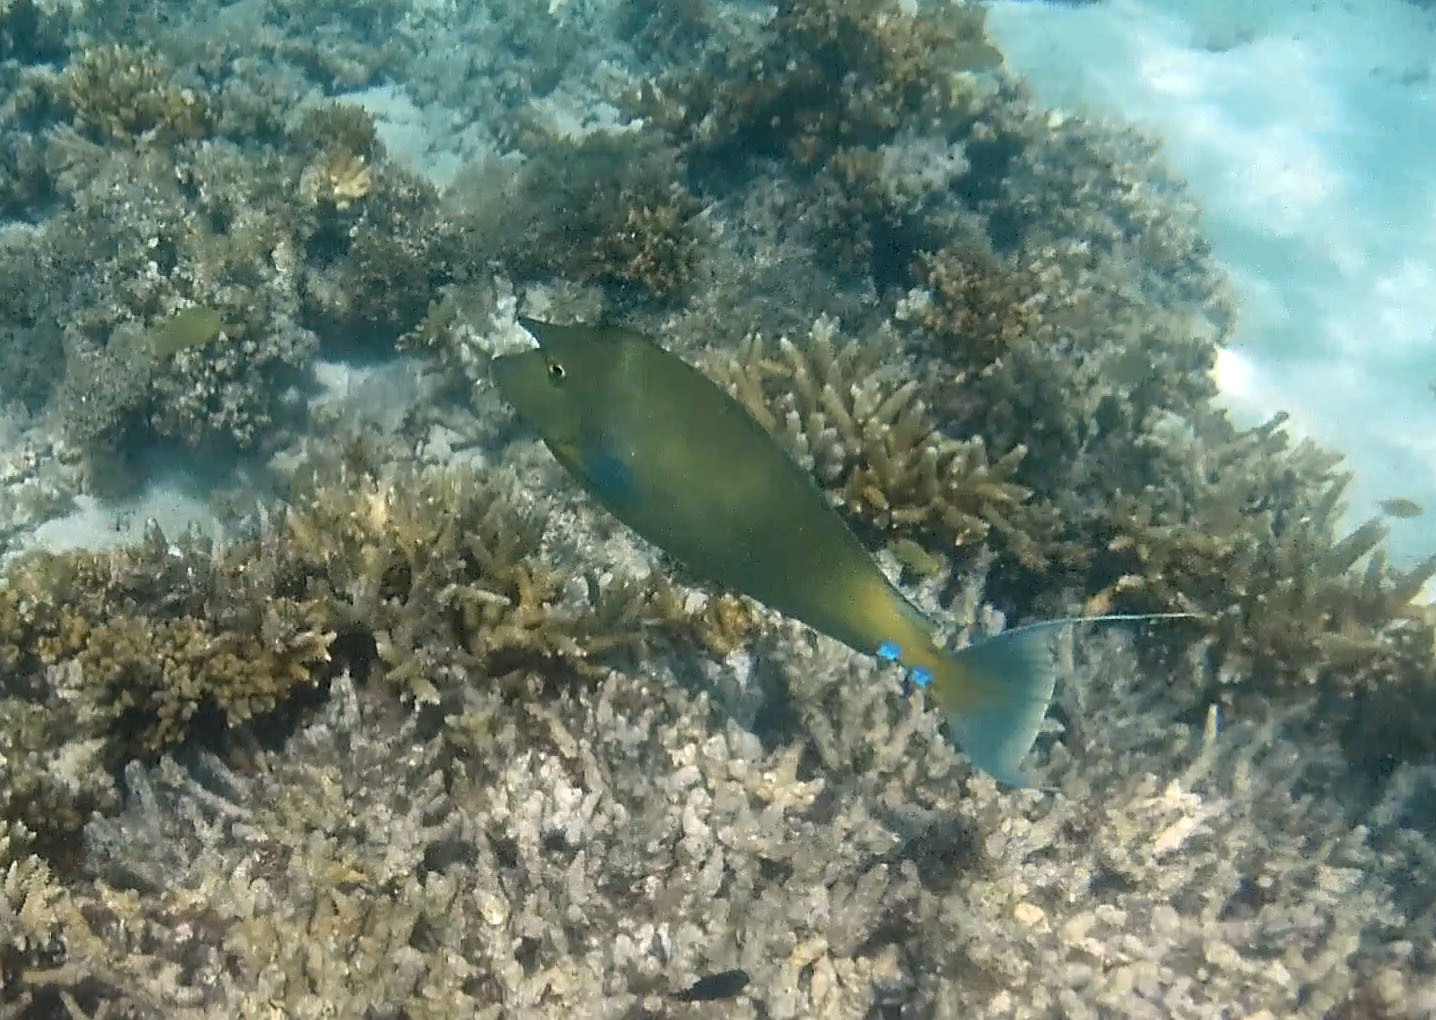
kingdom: Animalia
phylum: Chordata
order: Perciformes
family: Acanthuridae
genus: Naso
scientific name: Naso unicornis
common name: Bluespine unicornfish
